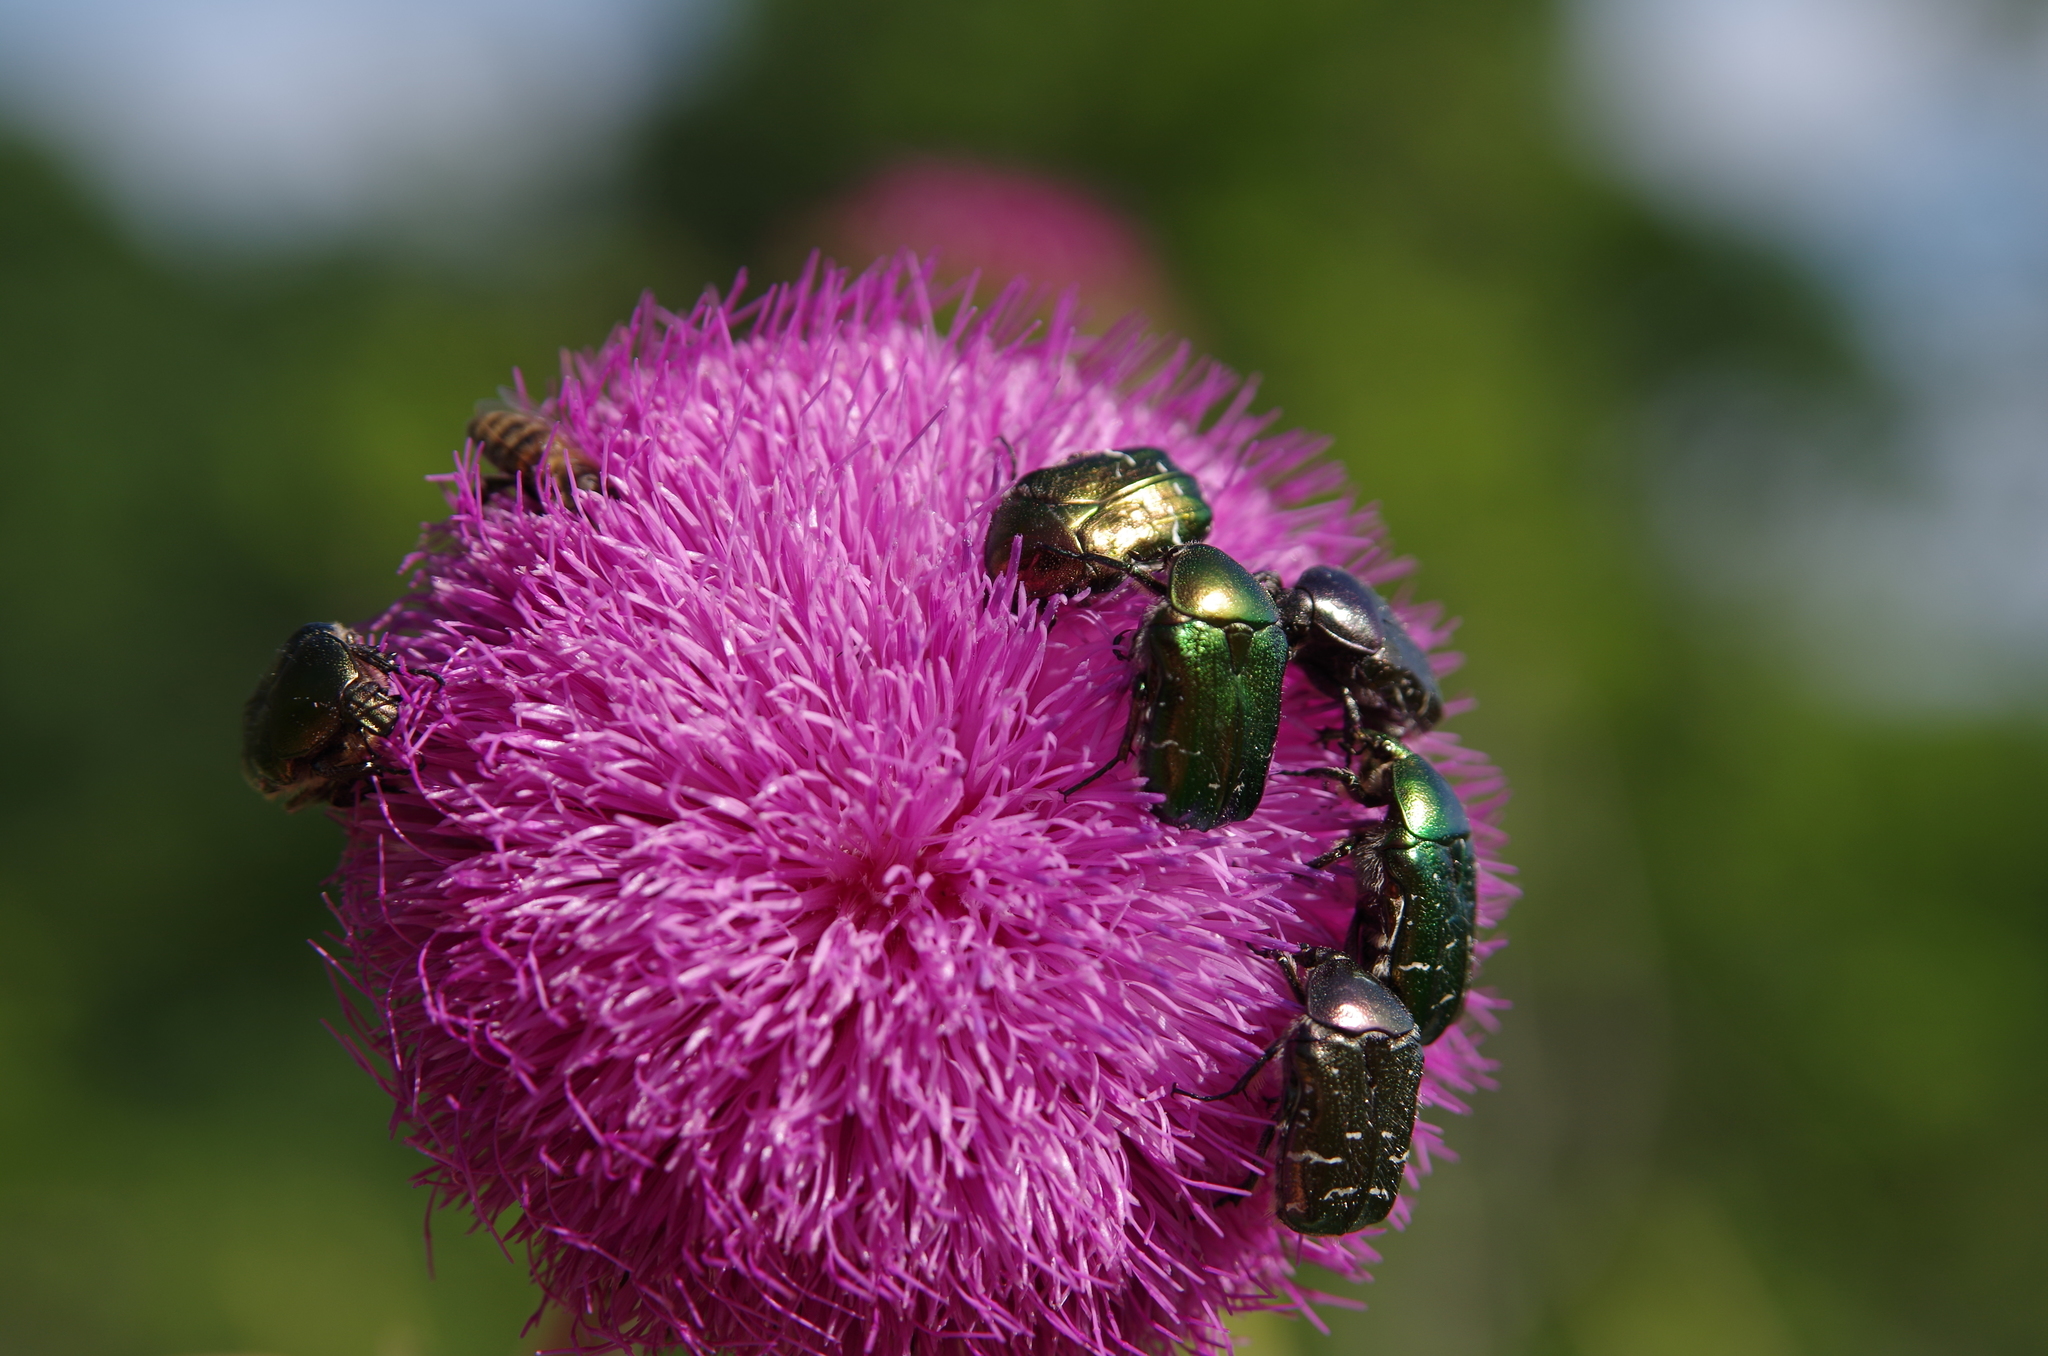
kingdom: Animalia
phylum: Arthropoda
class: Insecta
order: Coleoptera
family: Scarabaeidae
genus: Cetonia
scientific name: Cetonia aurata
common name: Rose chafer
